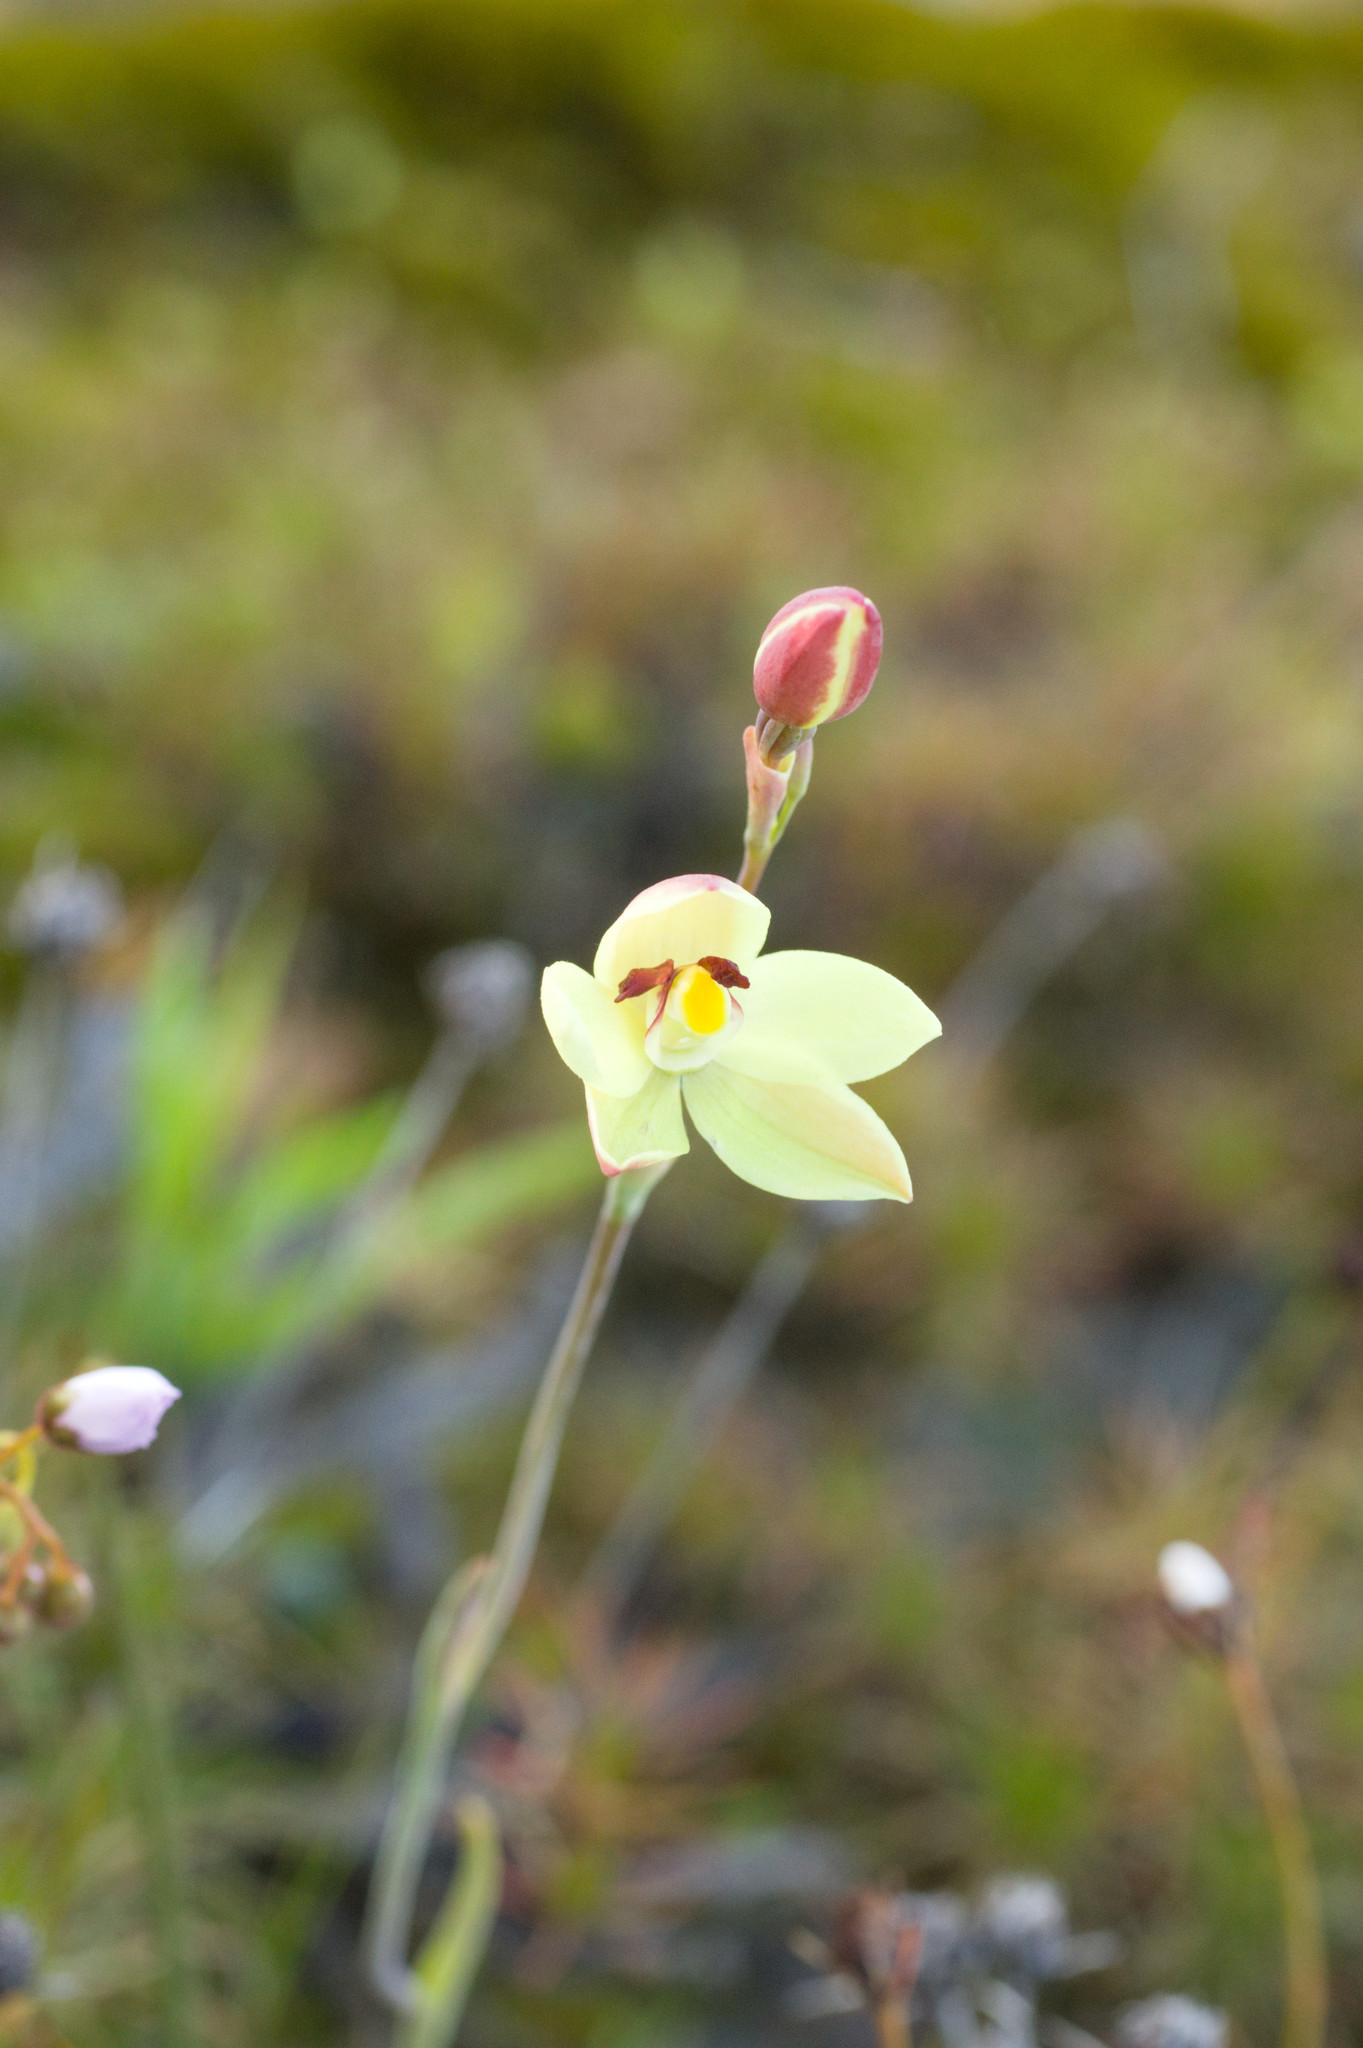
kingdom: Plantae
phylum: Tracheophyta
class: Liliopsida
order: Asparagales
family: Orchidaceae
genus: Thelymitra
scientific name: Thelymitra antennifera
